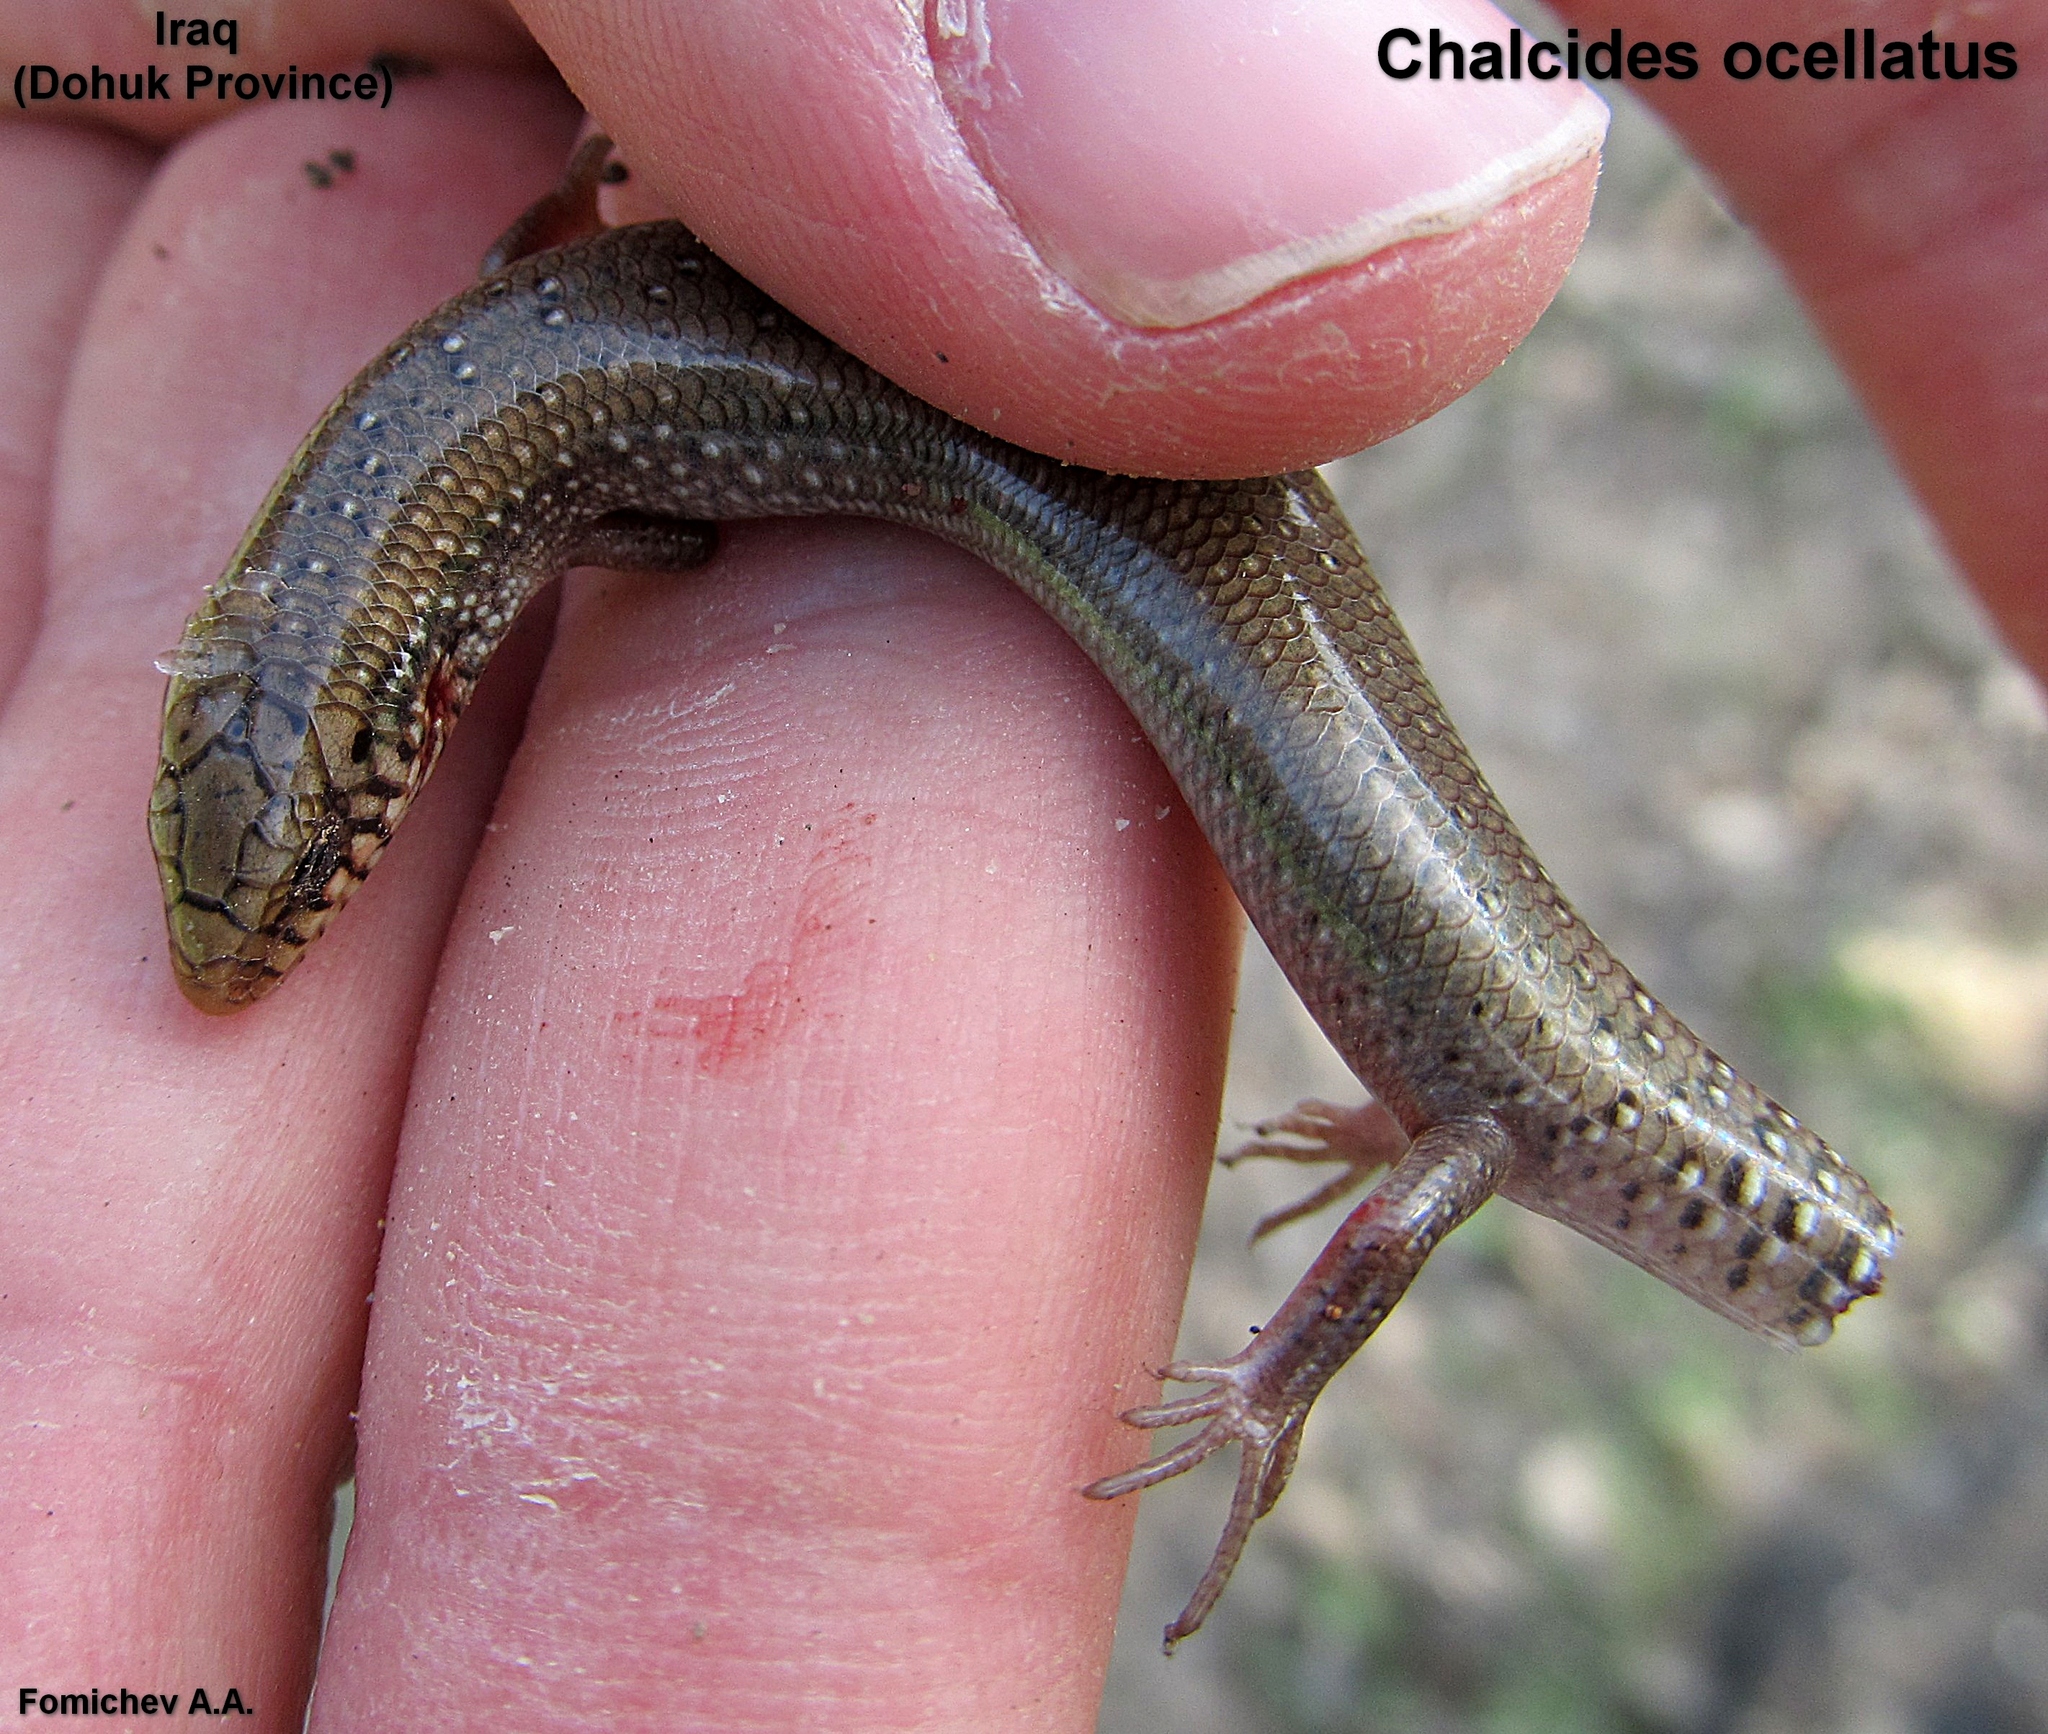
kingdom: Animalia
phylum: Chordata
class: Squamata
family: Scincidae
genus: Chalcides
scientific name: Chalcides ocellatus
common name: Ocellated skink
